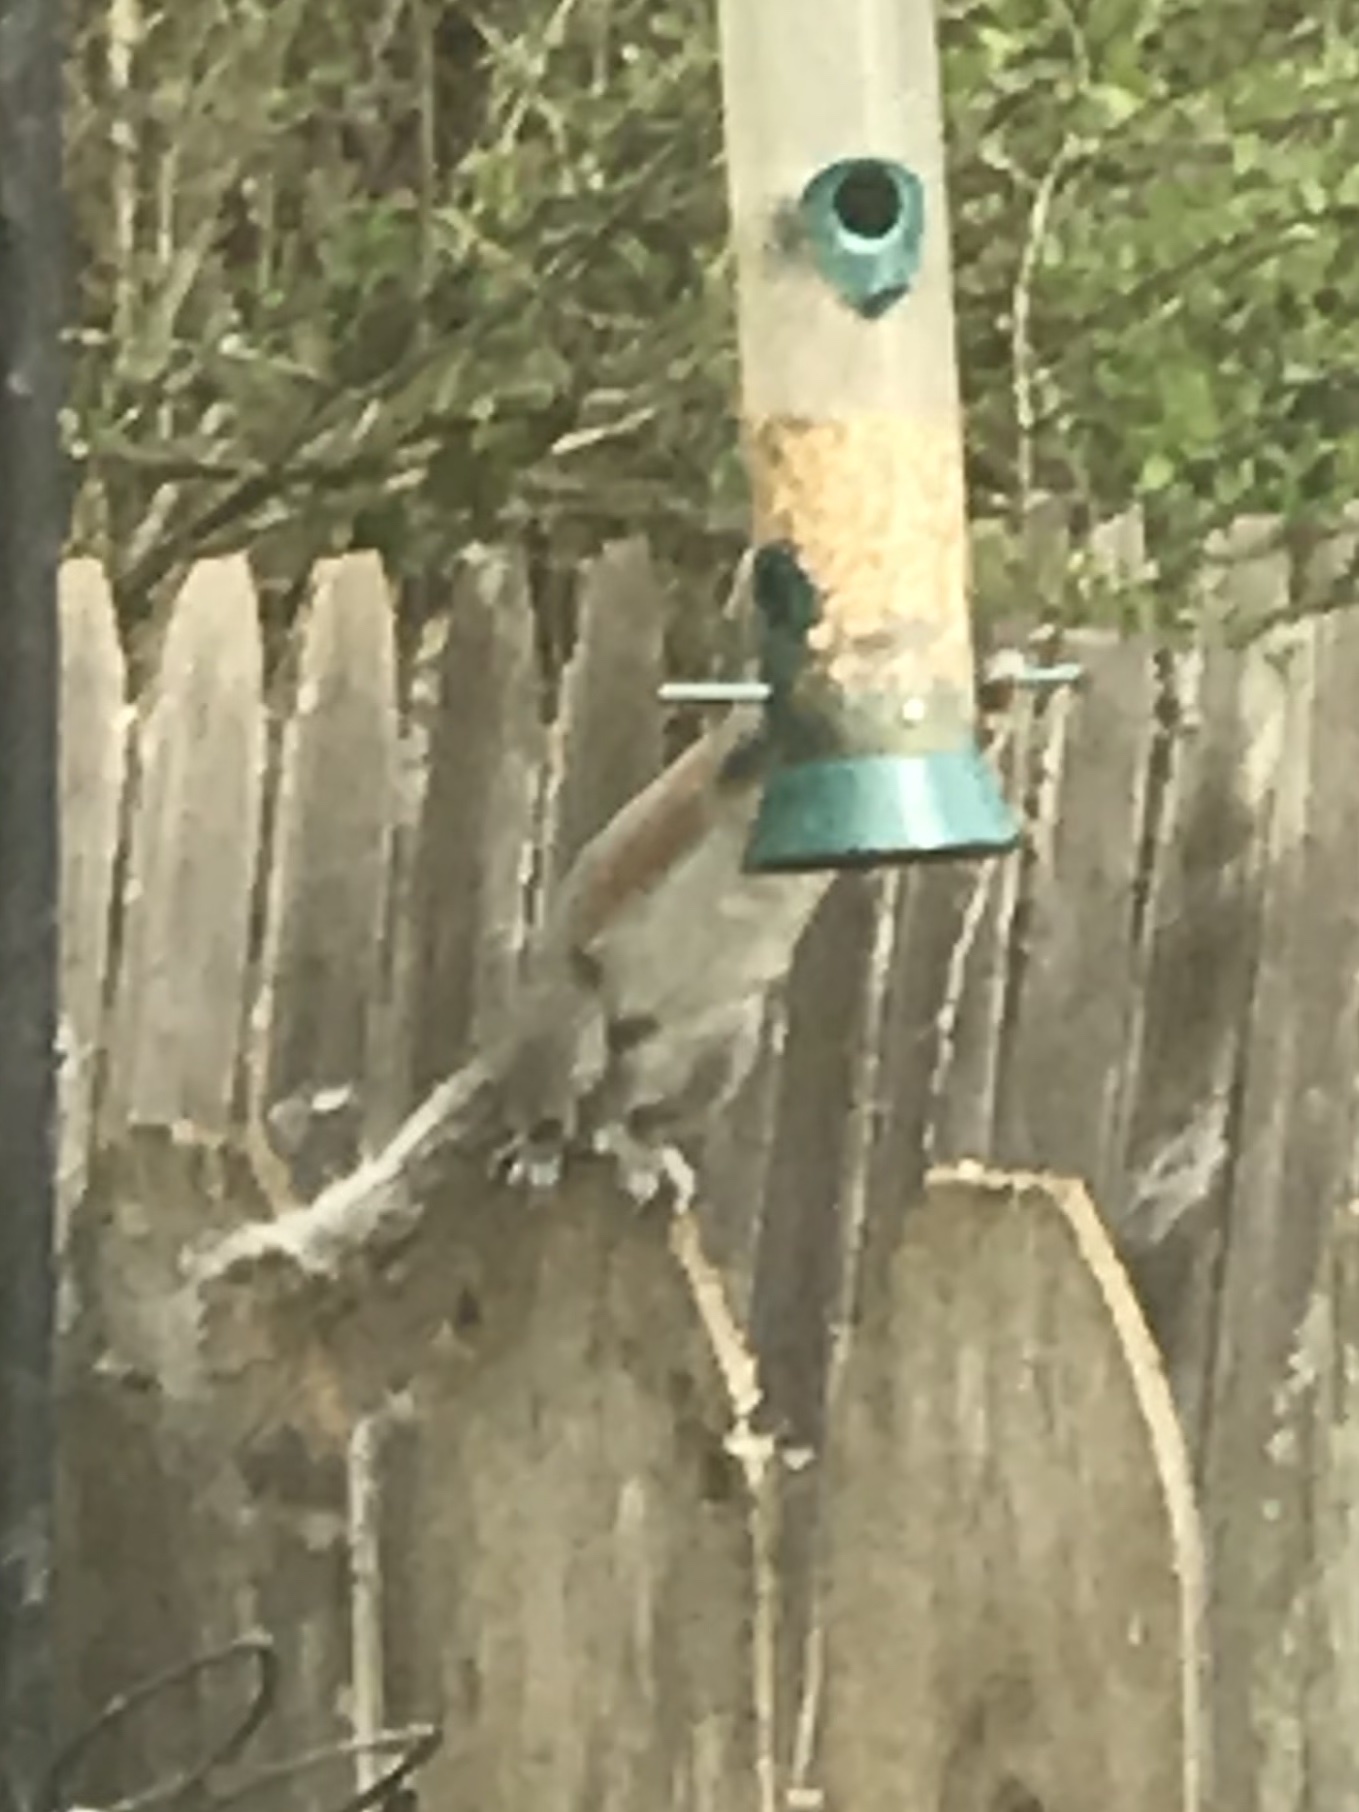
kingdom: Animalia
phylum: Chordata
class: Mammalia
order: Rodentia
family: Sciuridae
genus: Sciurus
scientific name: Sciurus carolinensis
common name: Eastern gray squirrel
